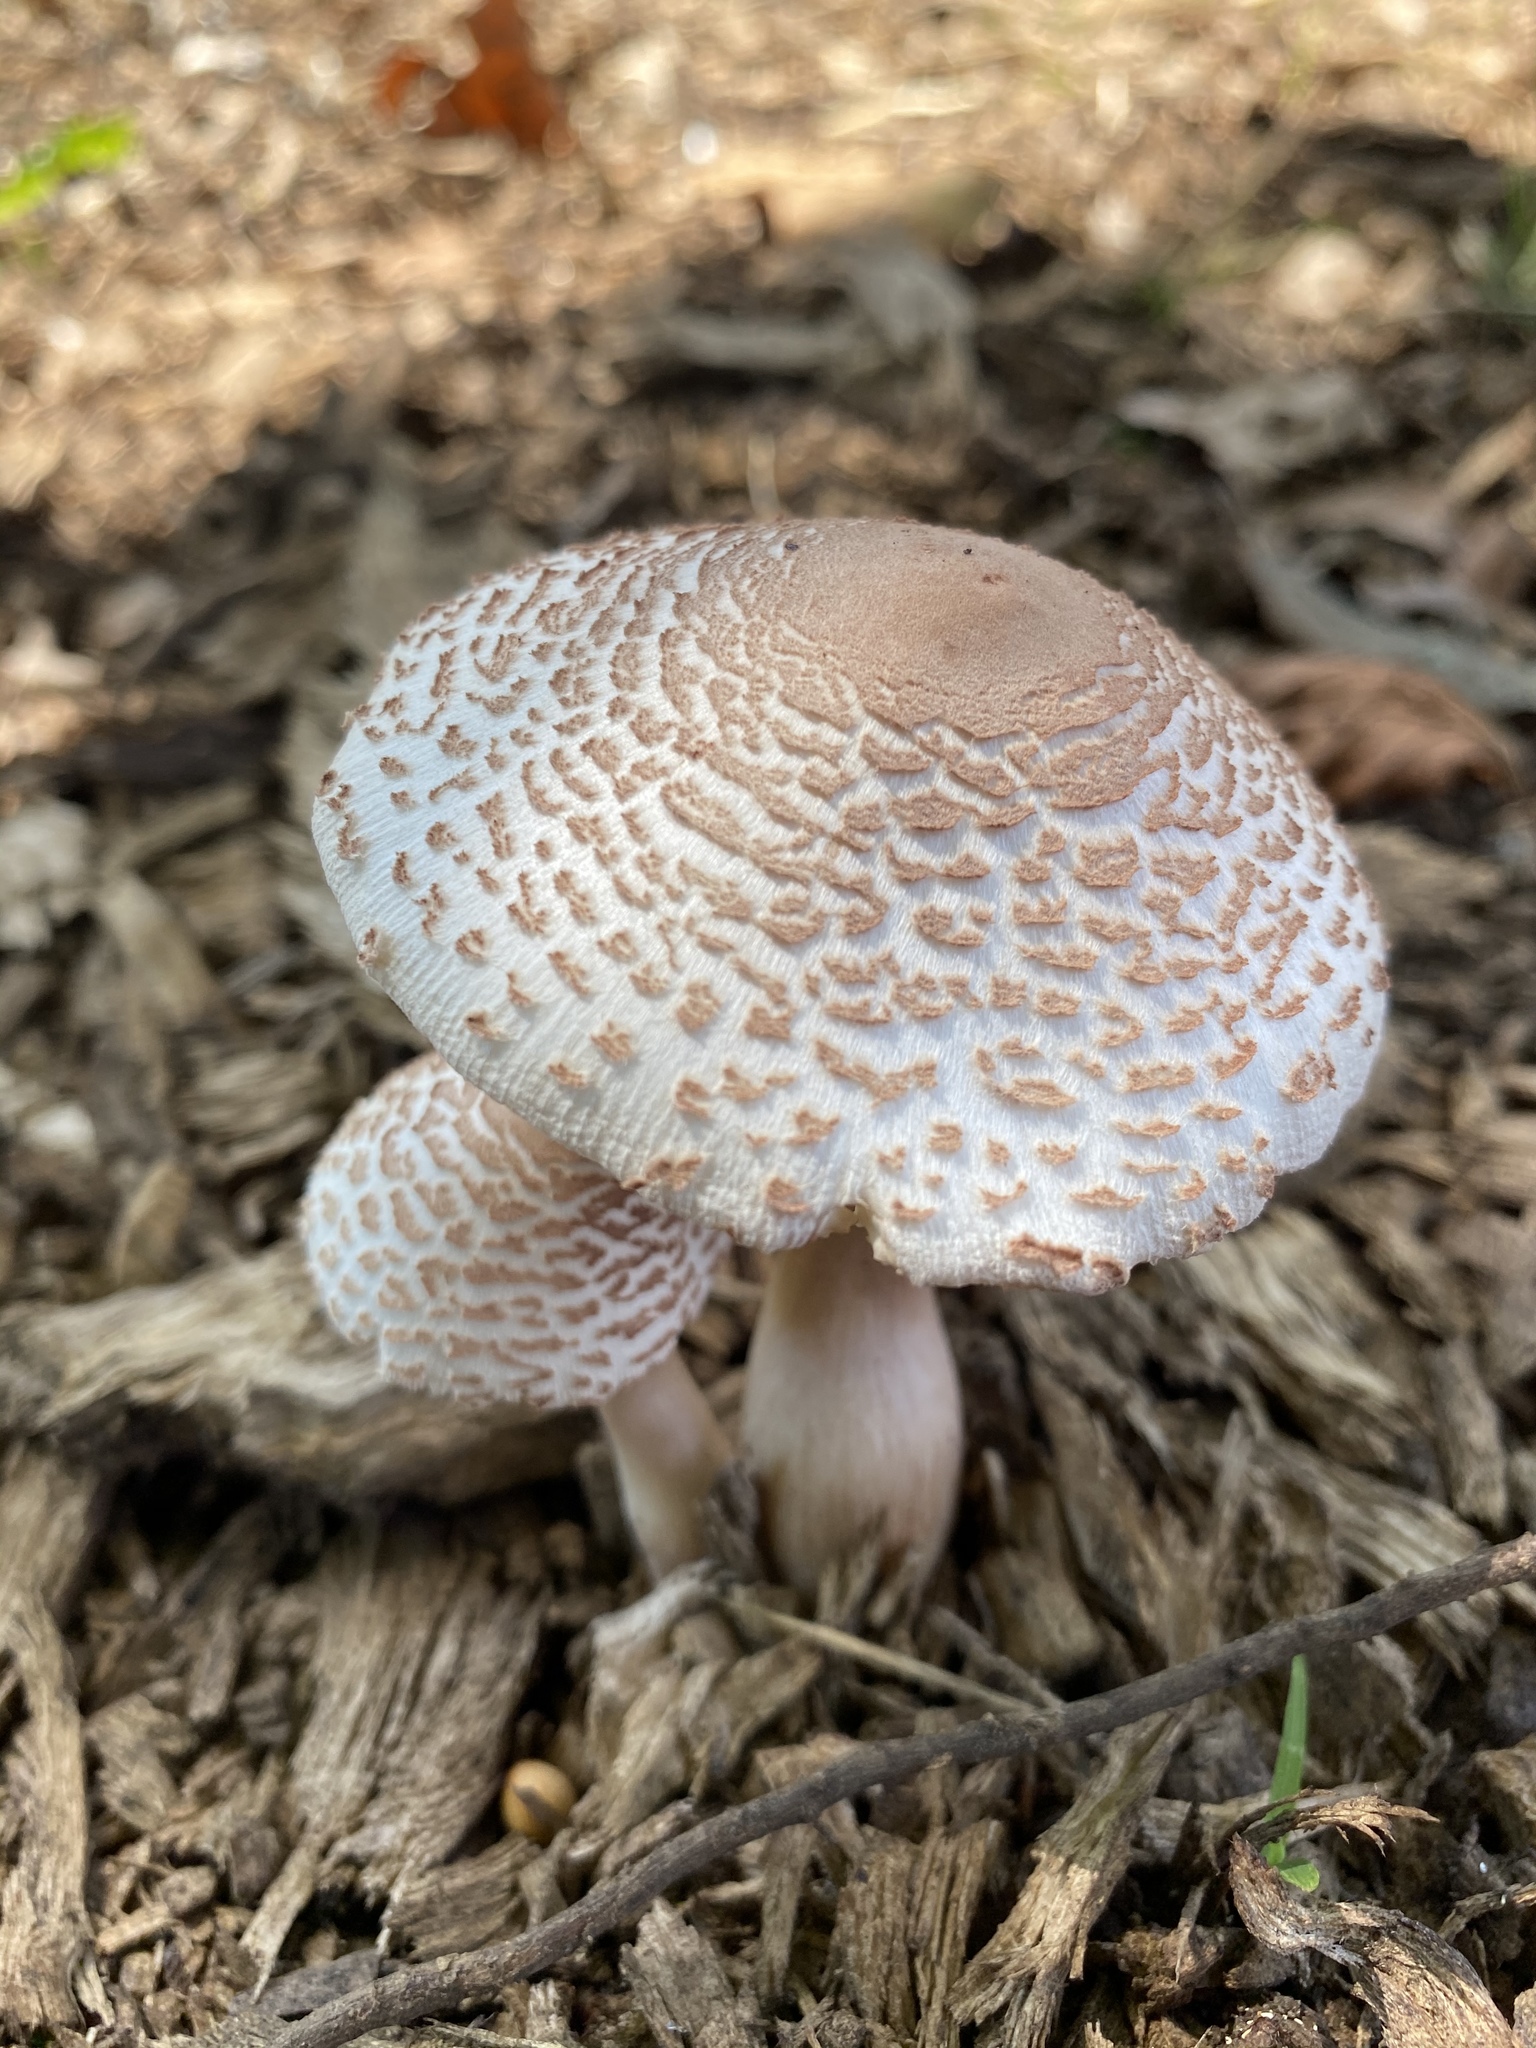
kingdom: Fungi
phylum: Basidiomycota
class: Agaricomycetes
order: Agaricales
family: Agaricaceae
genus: Leucoagaricus
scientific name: Leucoagaricus americanus
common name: Reddening lepiota
